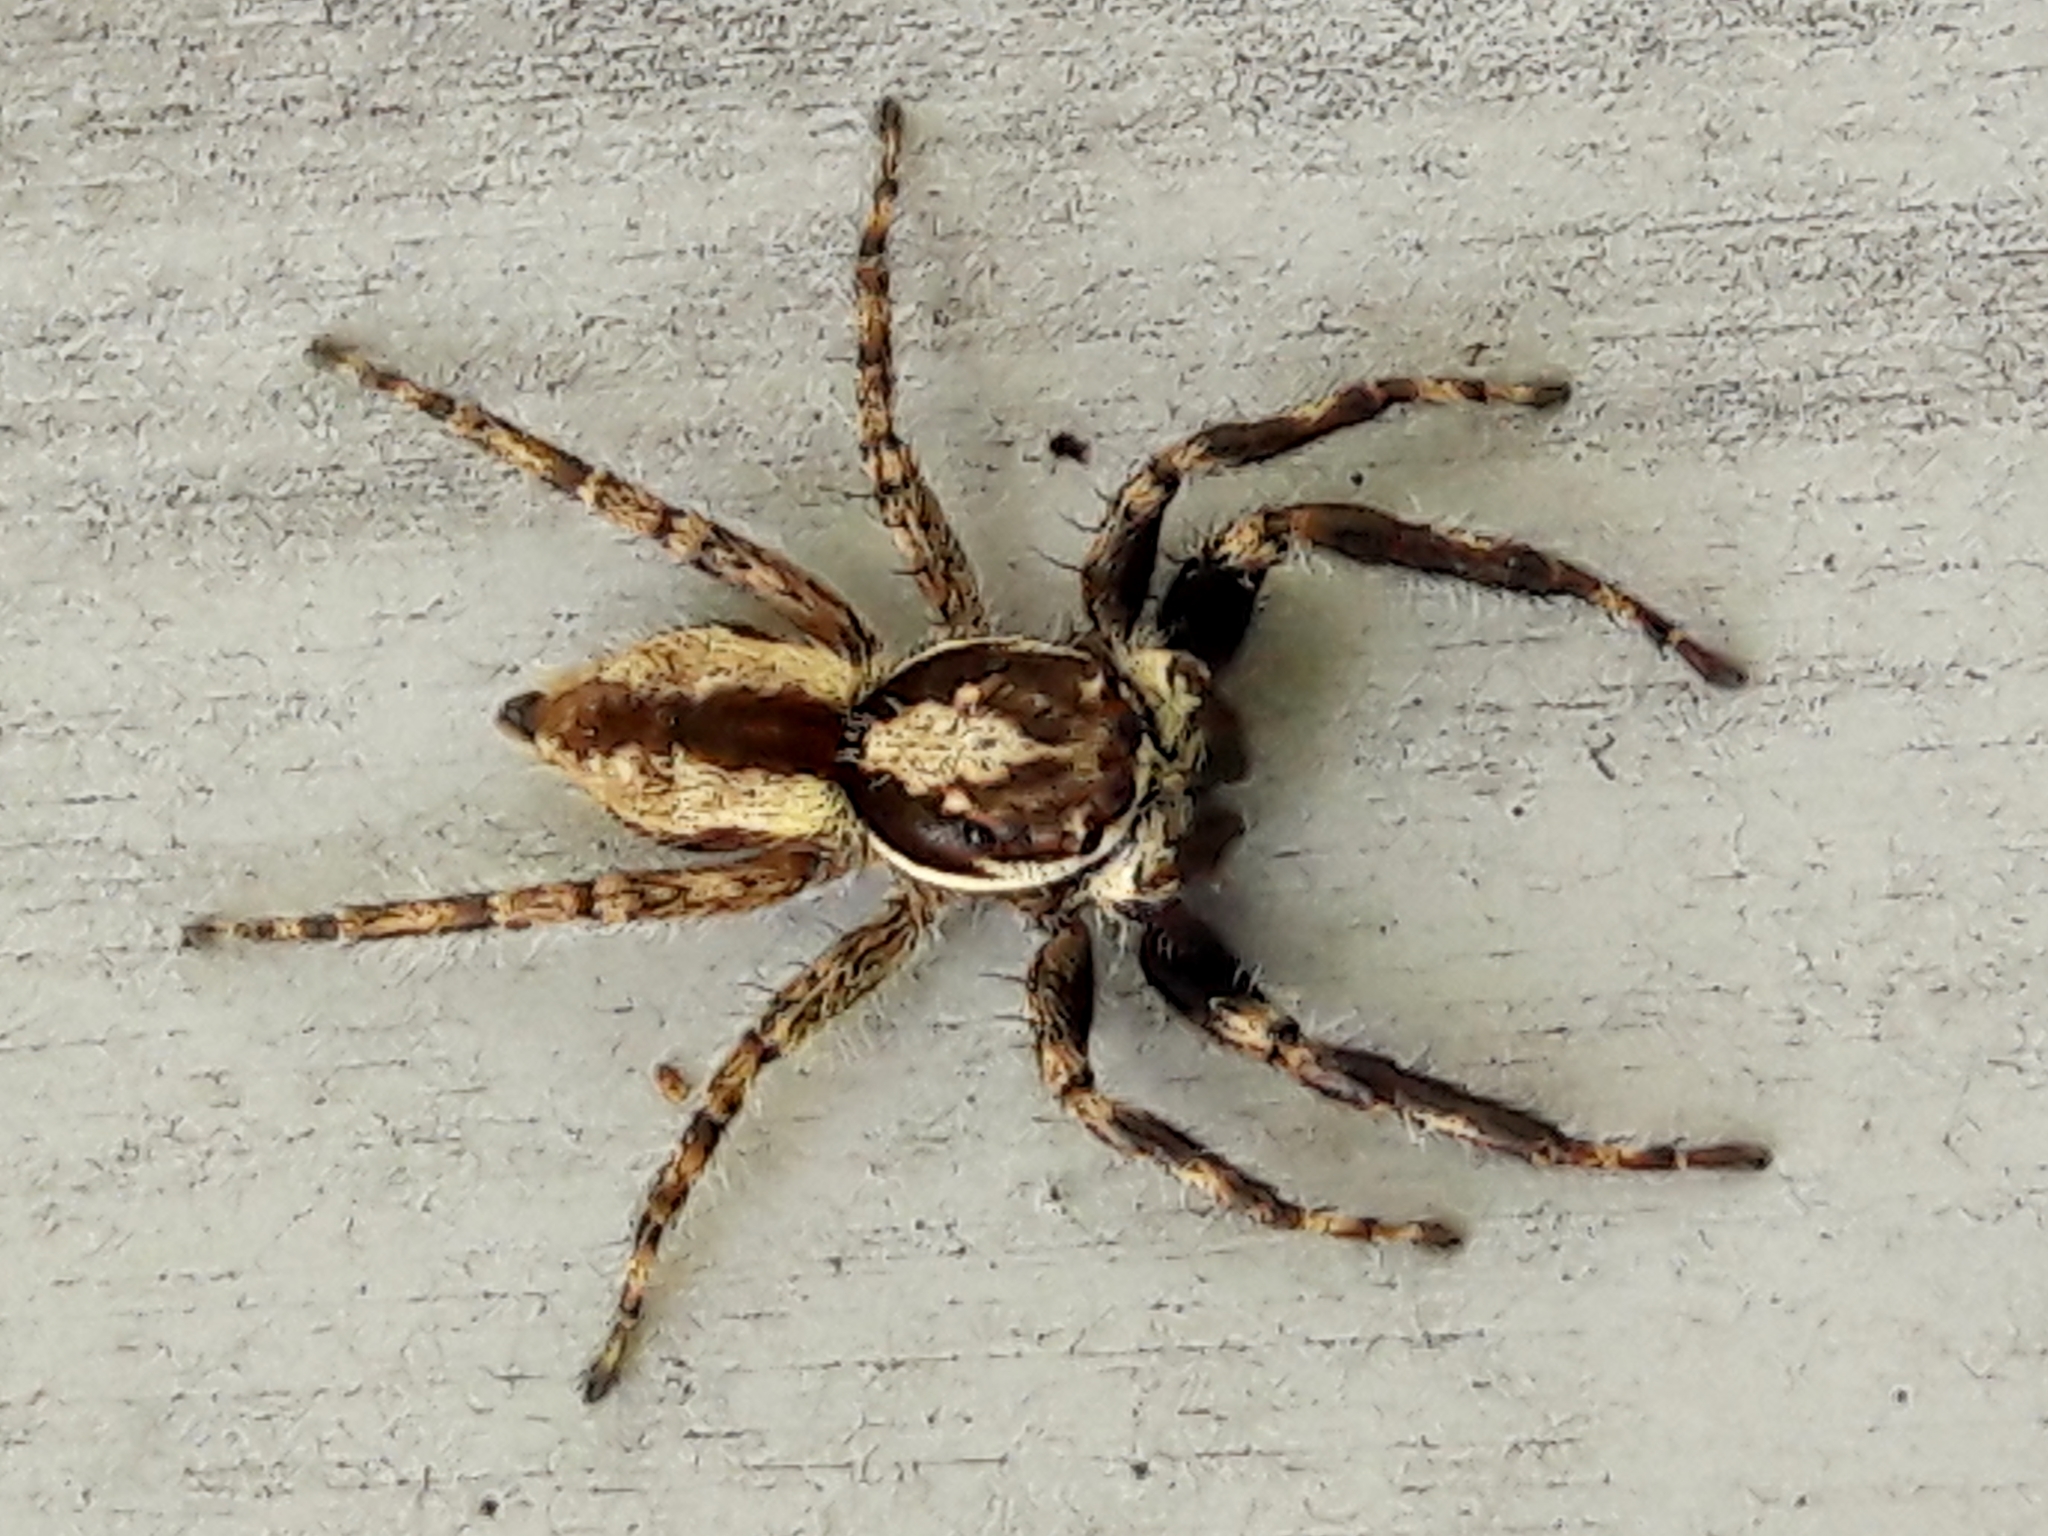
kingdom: Animalia
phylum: Arthropoda
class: Arachnida
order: Araneae
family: Salticidae
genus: Menemerus
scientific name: Menemerus bivittatus
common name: Gray wall jumper
